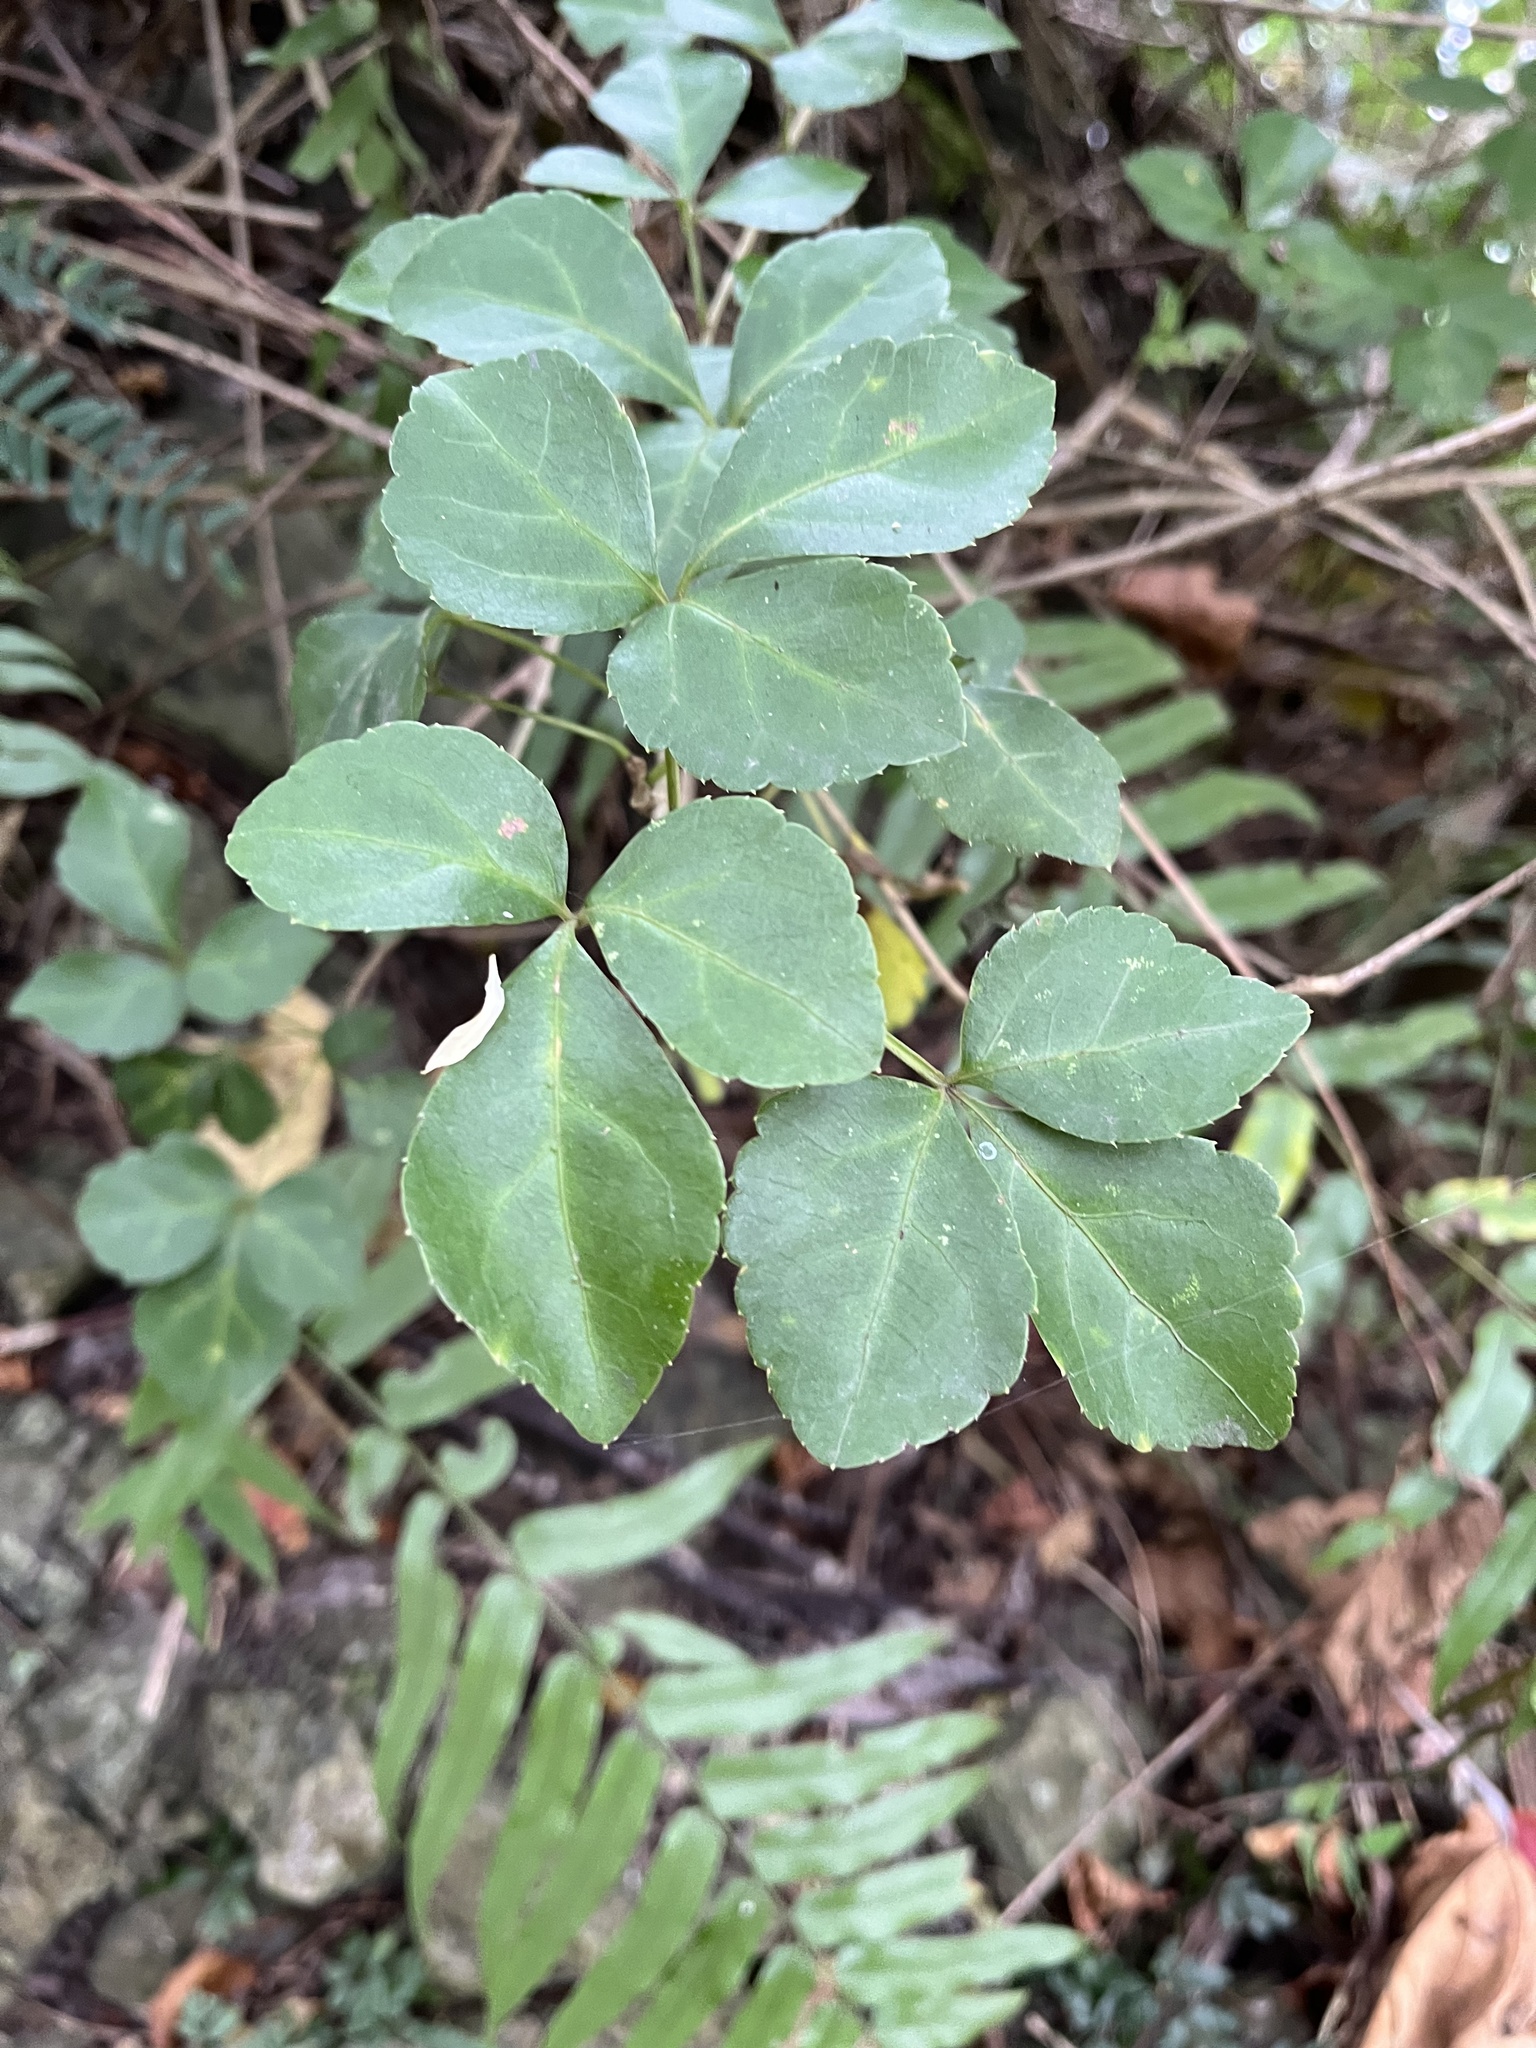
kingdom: Plantae
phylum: Tracheophyta
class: Magnoliopsida
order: Apiales
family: Araliaceae
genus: Eleutherococcus
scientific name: Eleutherococcus trifoliatus
